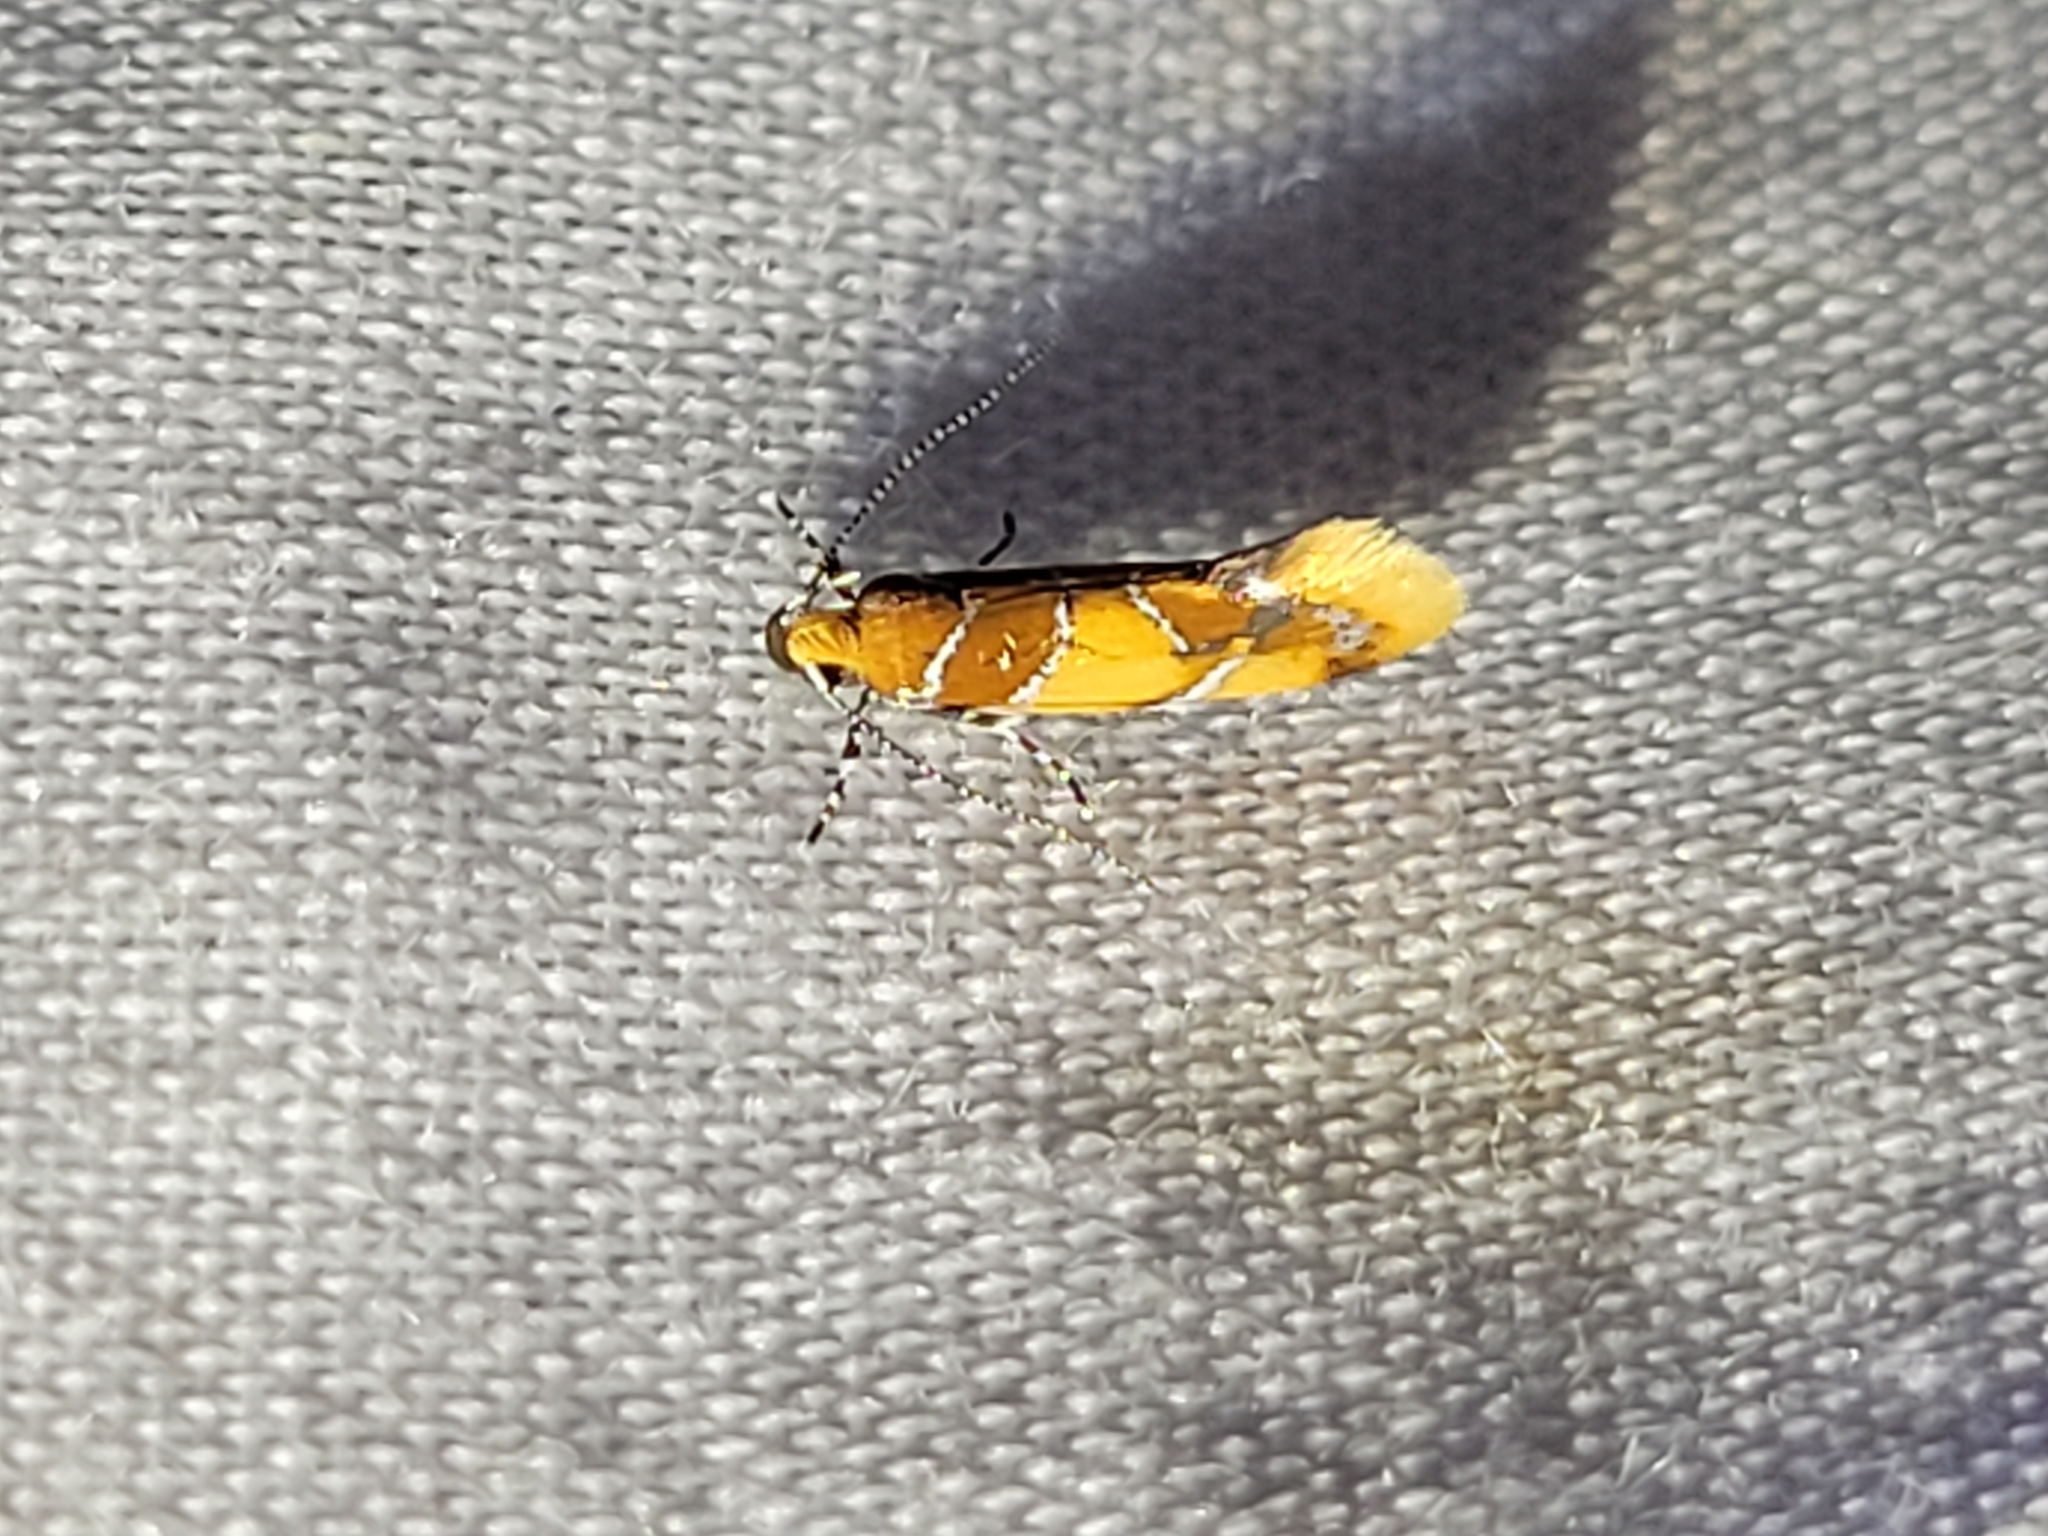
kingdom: Animalia
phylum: Arthropoda
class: Insecta
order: Lepidoptera
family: Oecophoridae
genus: Callima
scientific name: Callima argenticinctella
